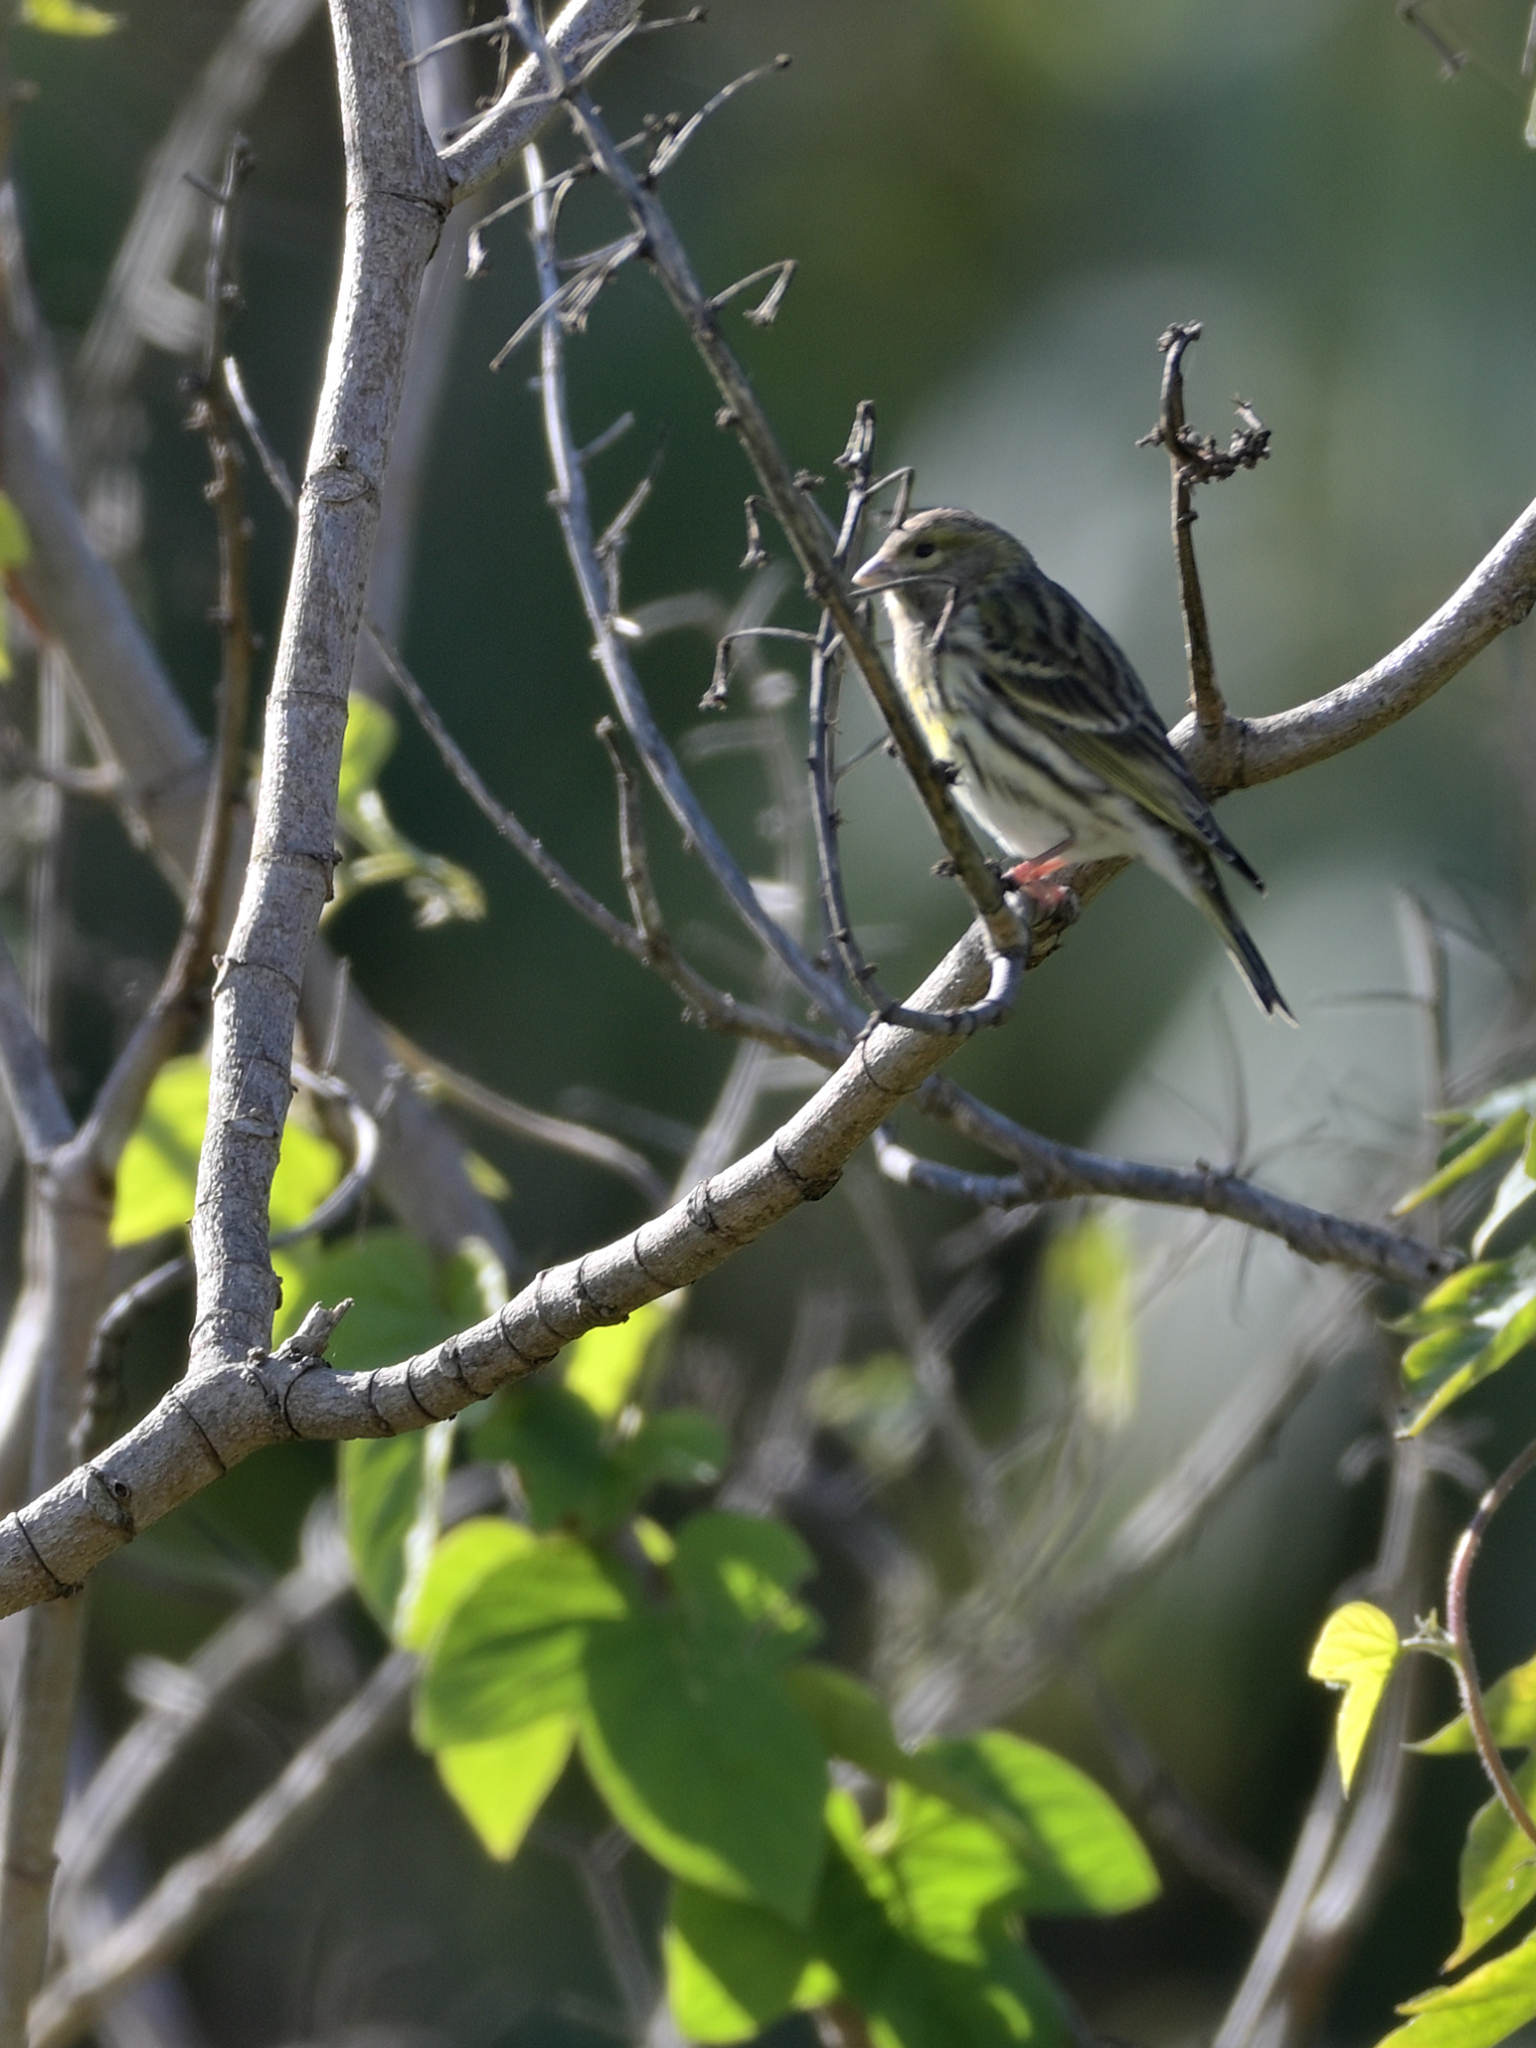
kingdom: Animalia
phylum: Chordata
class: Aves
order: Passeriformes
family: Fringillidae
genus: Serinus
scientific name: Serinus serinus
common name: European serin
